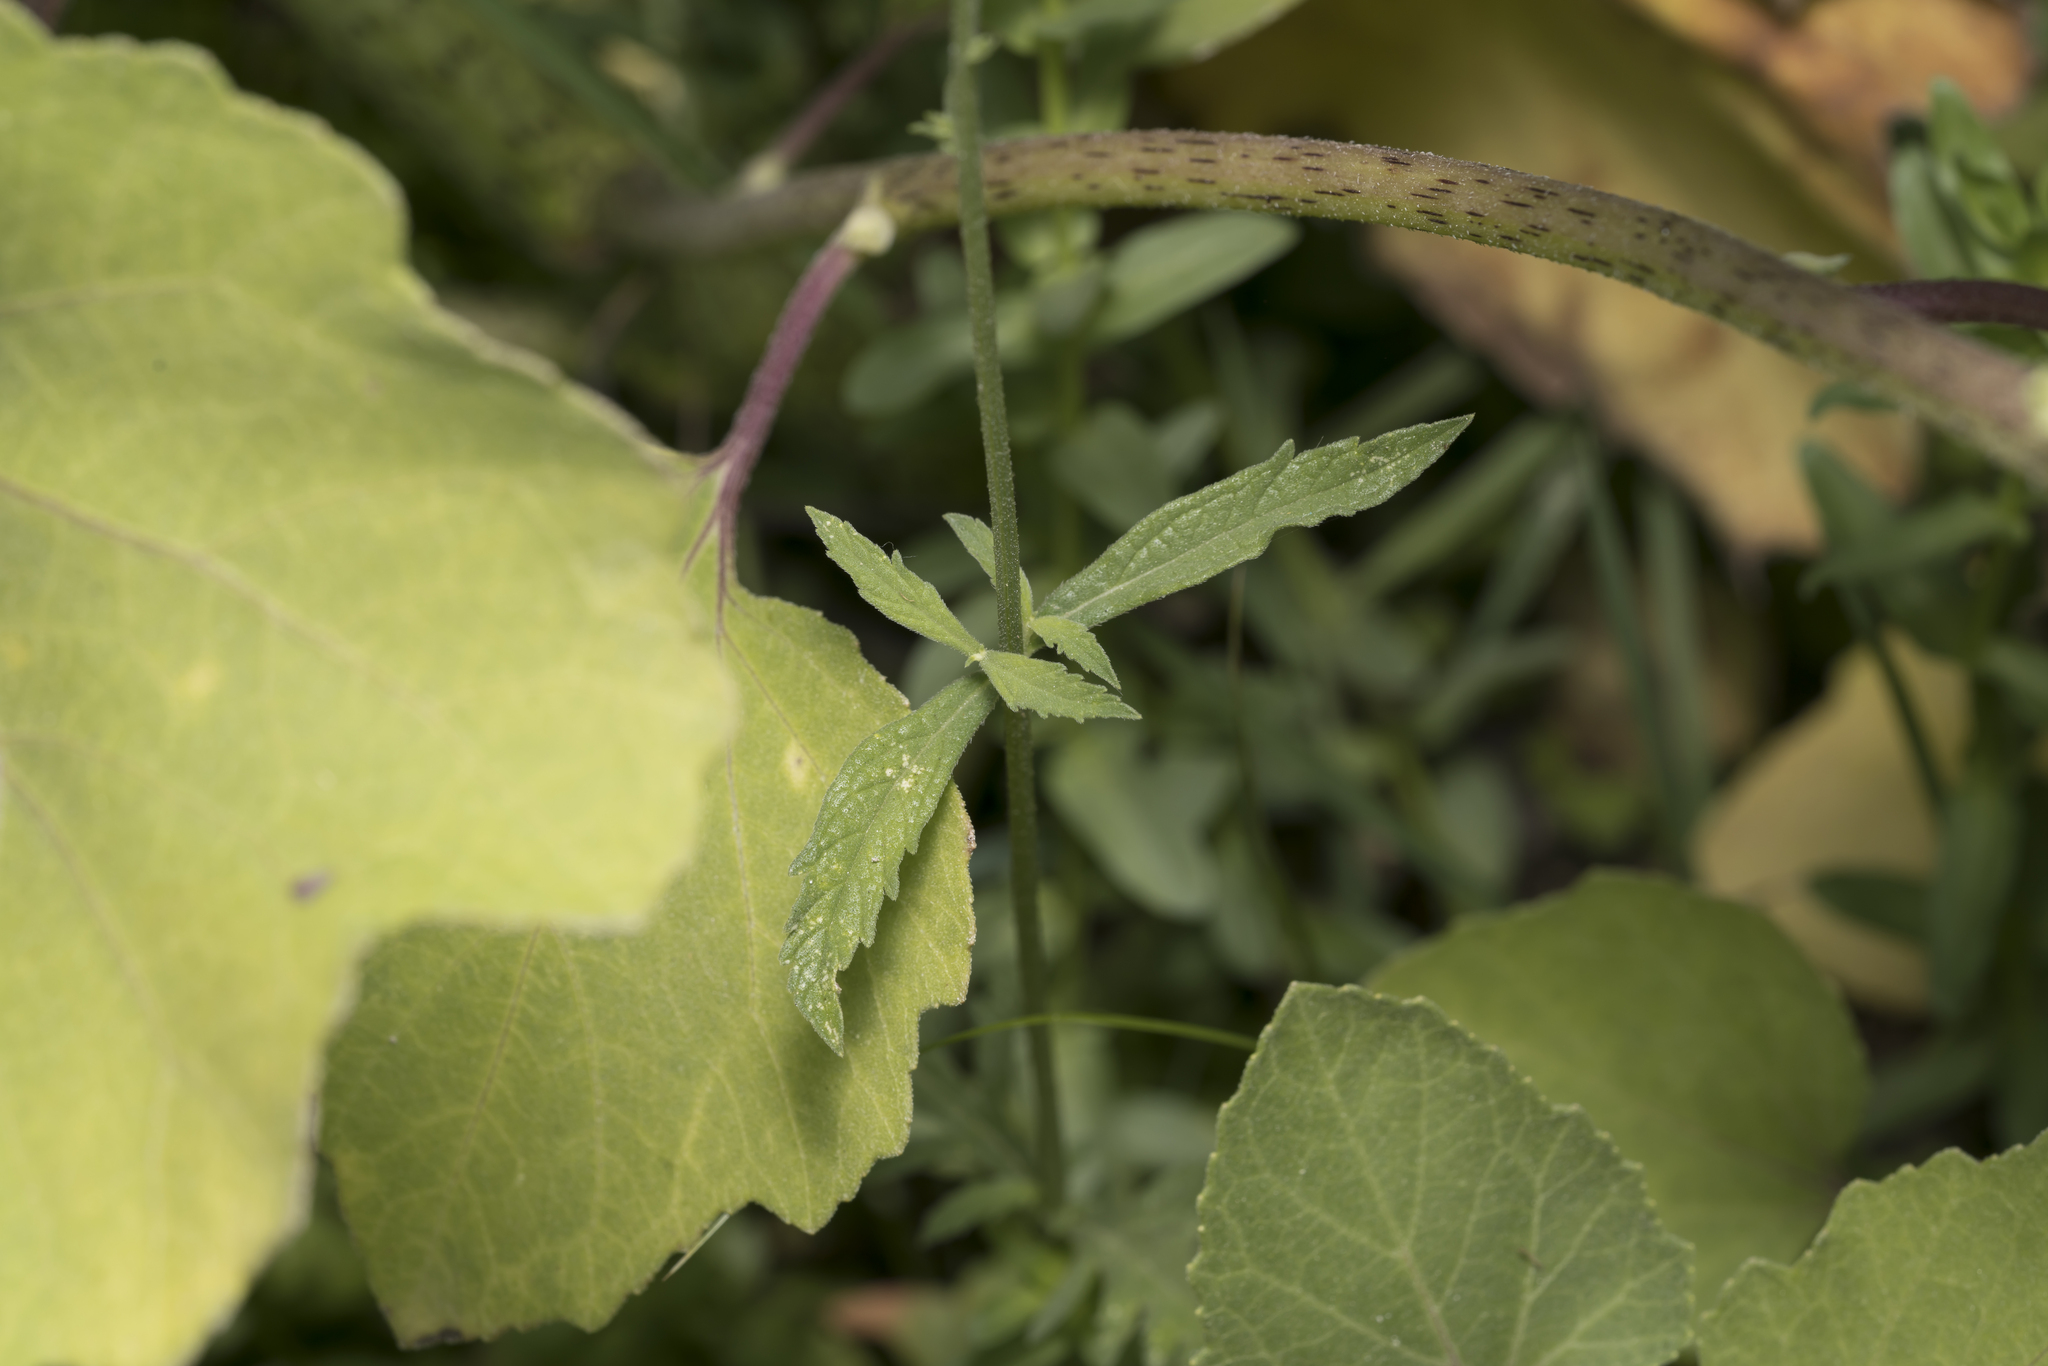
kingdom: Plantae
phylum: Tracheophyta
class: Magnoliopsida
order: Lamiales
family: Verbenaceae
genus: Verbena
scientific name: Verbena officinalis
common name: Vervain
